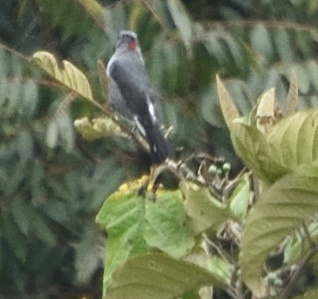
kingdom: Animalia
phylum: Chordata
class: Aves
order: Passeriformes
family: Cotingidae
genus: Ampelion
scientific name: Ampelion rubrocristatus
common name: Red-crested cotinga
